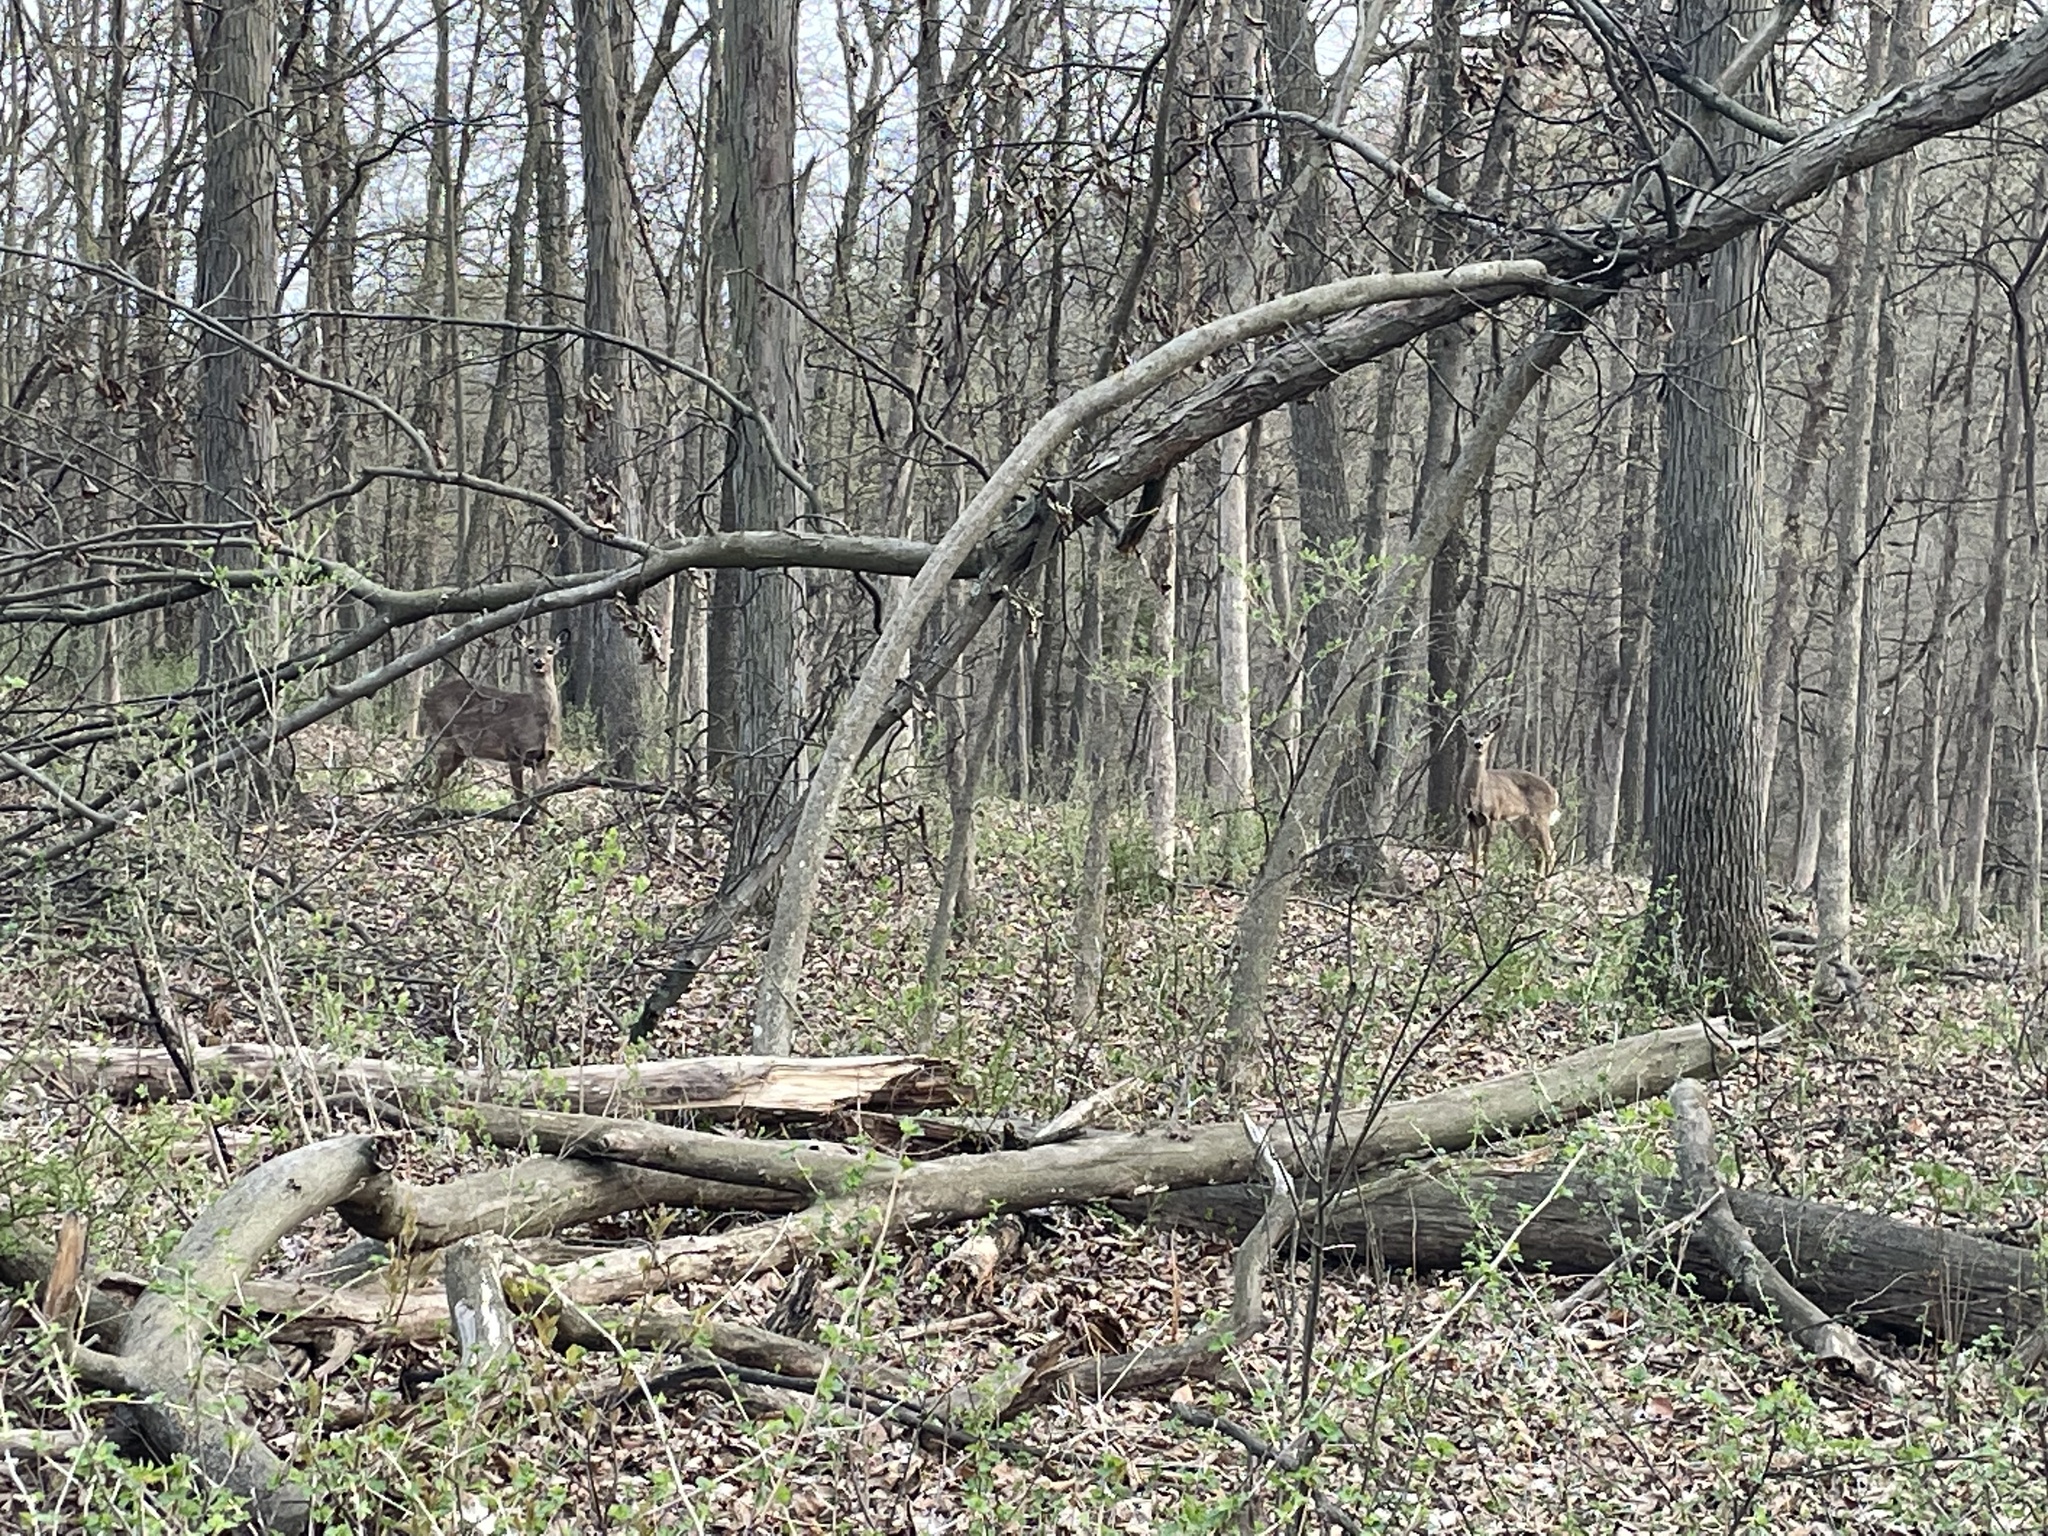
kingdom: Animalia
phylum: Chordata
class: Mammalia
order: Artiodactyla
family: Cervidae
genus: Odocoileus
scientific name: Odocoileus virginianus
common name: White-tailed deer
